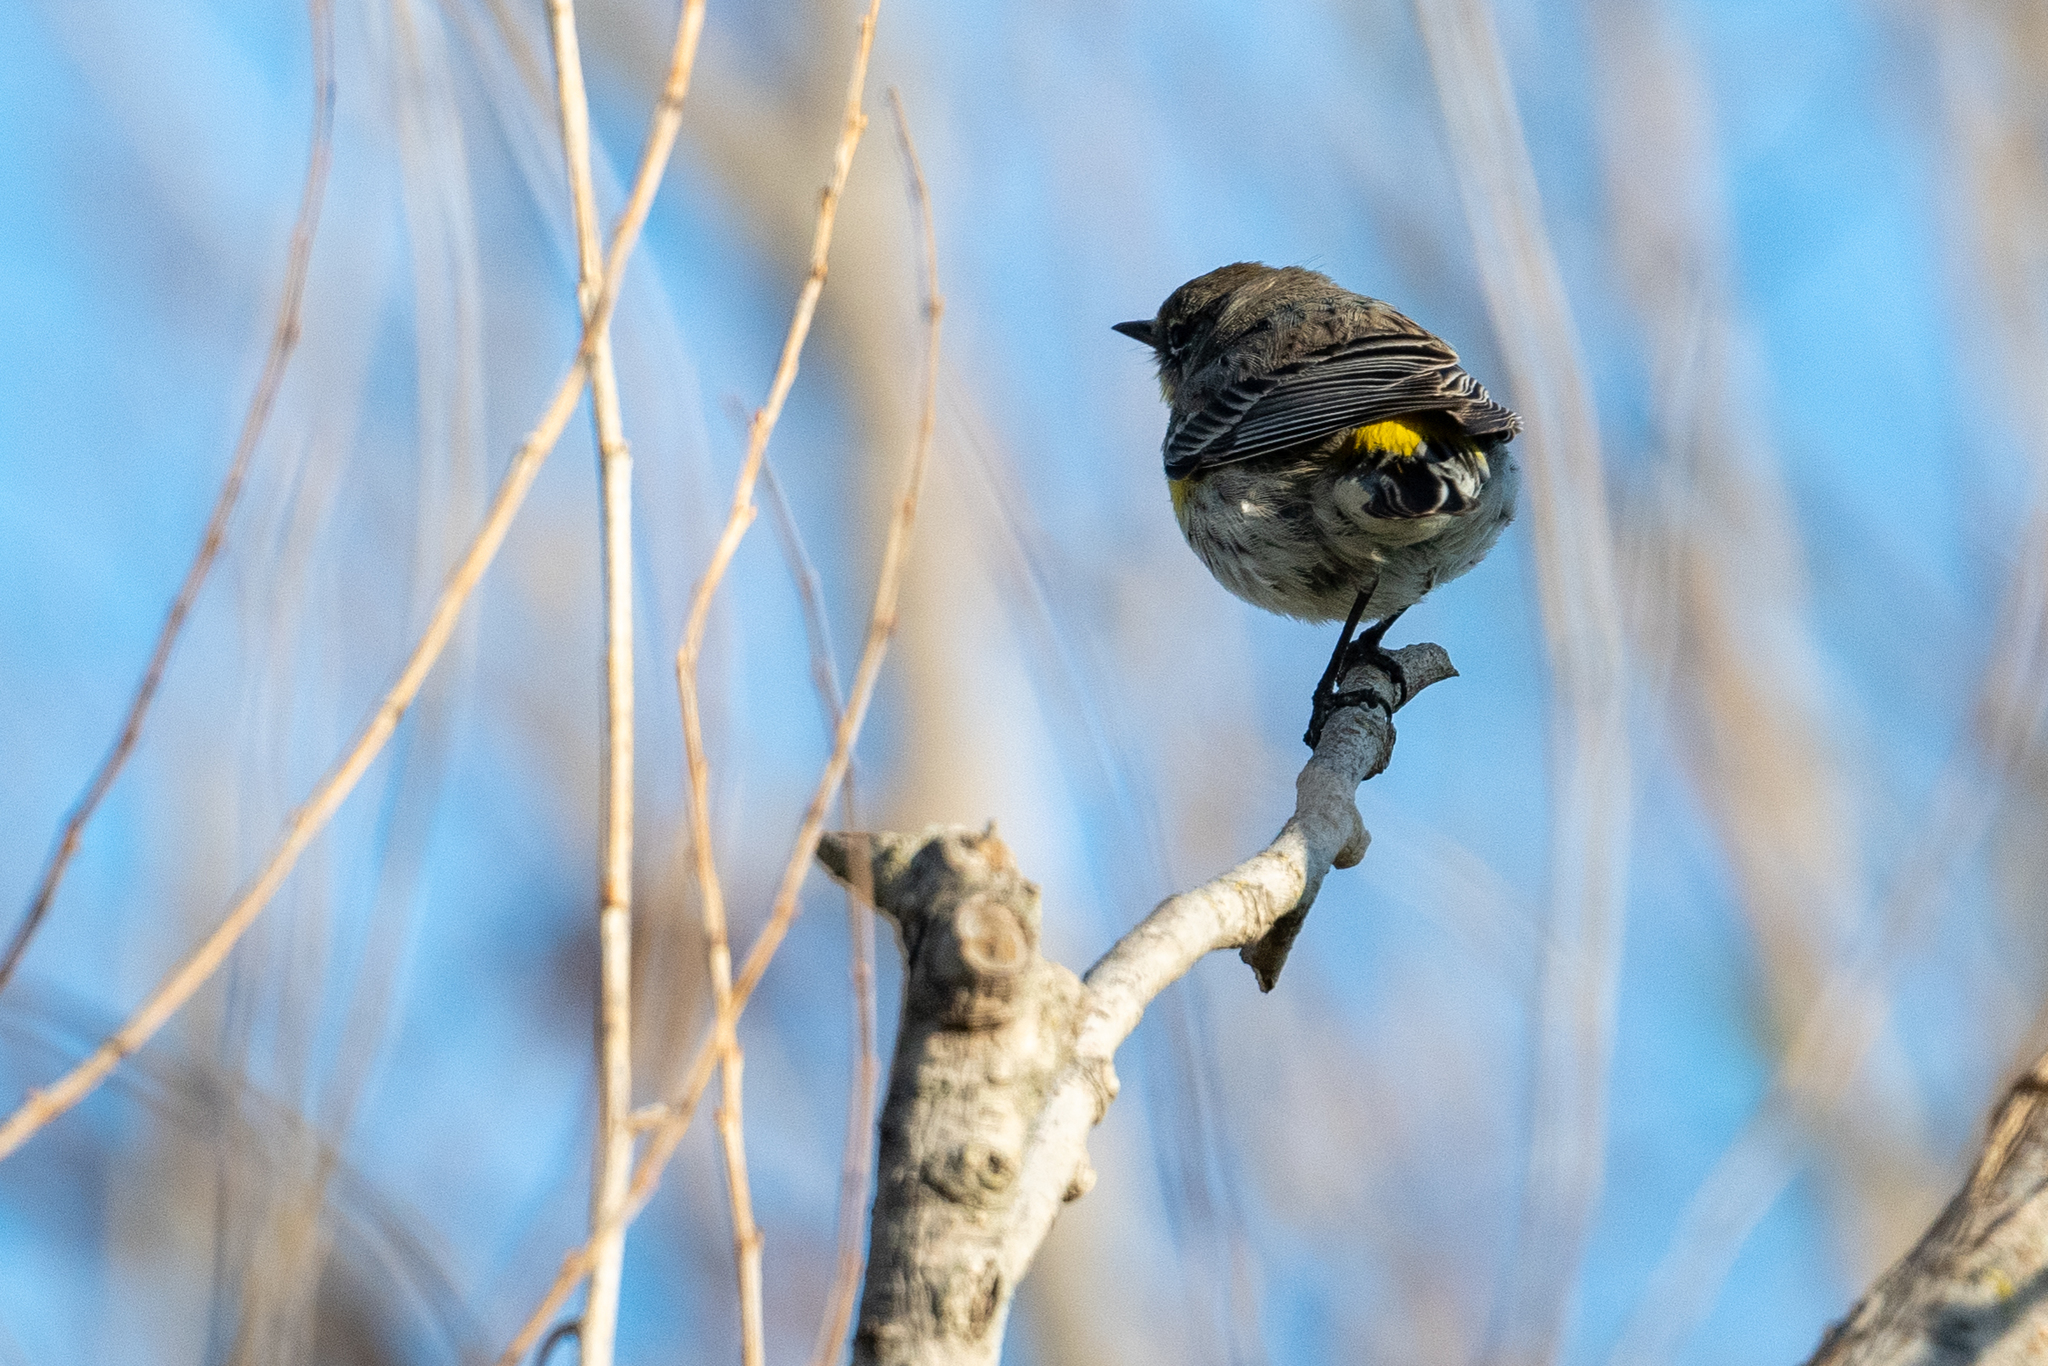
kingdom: Animalia
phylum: Chordata
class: Aves
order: Passeriformes
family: Parulidae
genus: Setophaga
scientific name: Setophaga coronata
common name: Myrtle warbler
